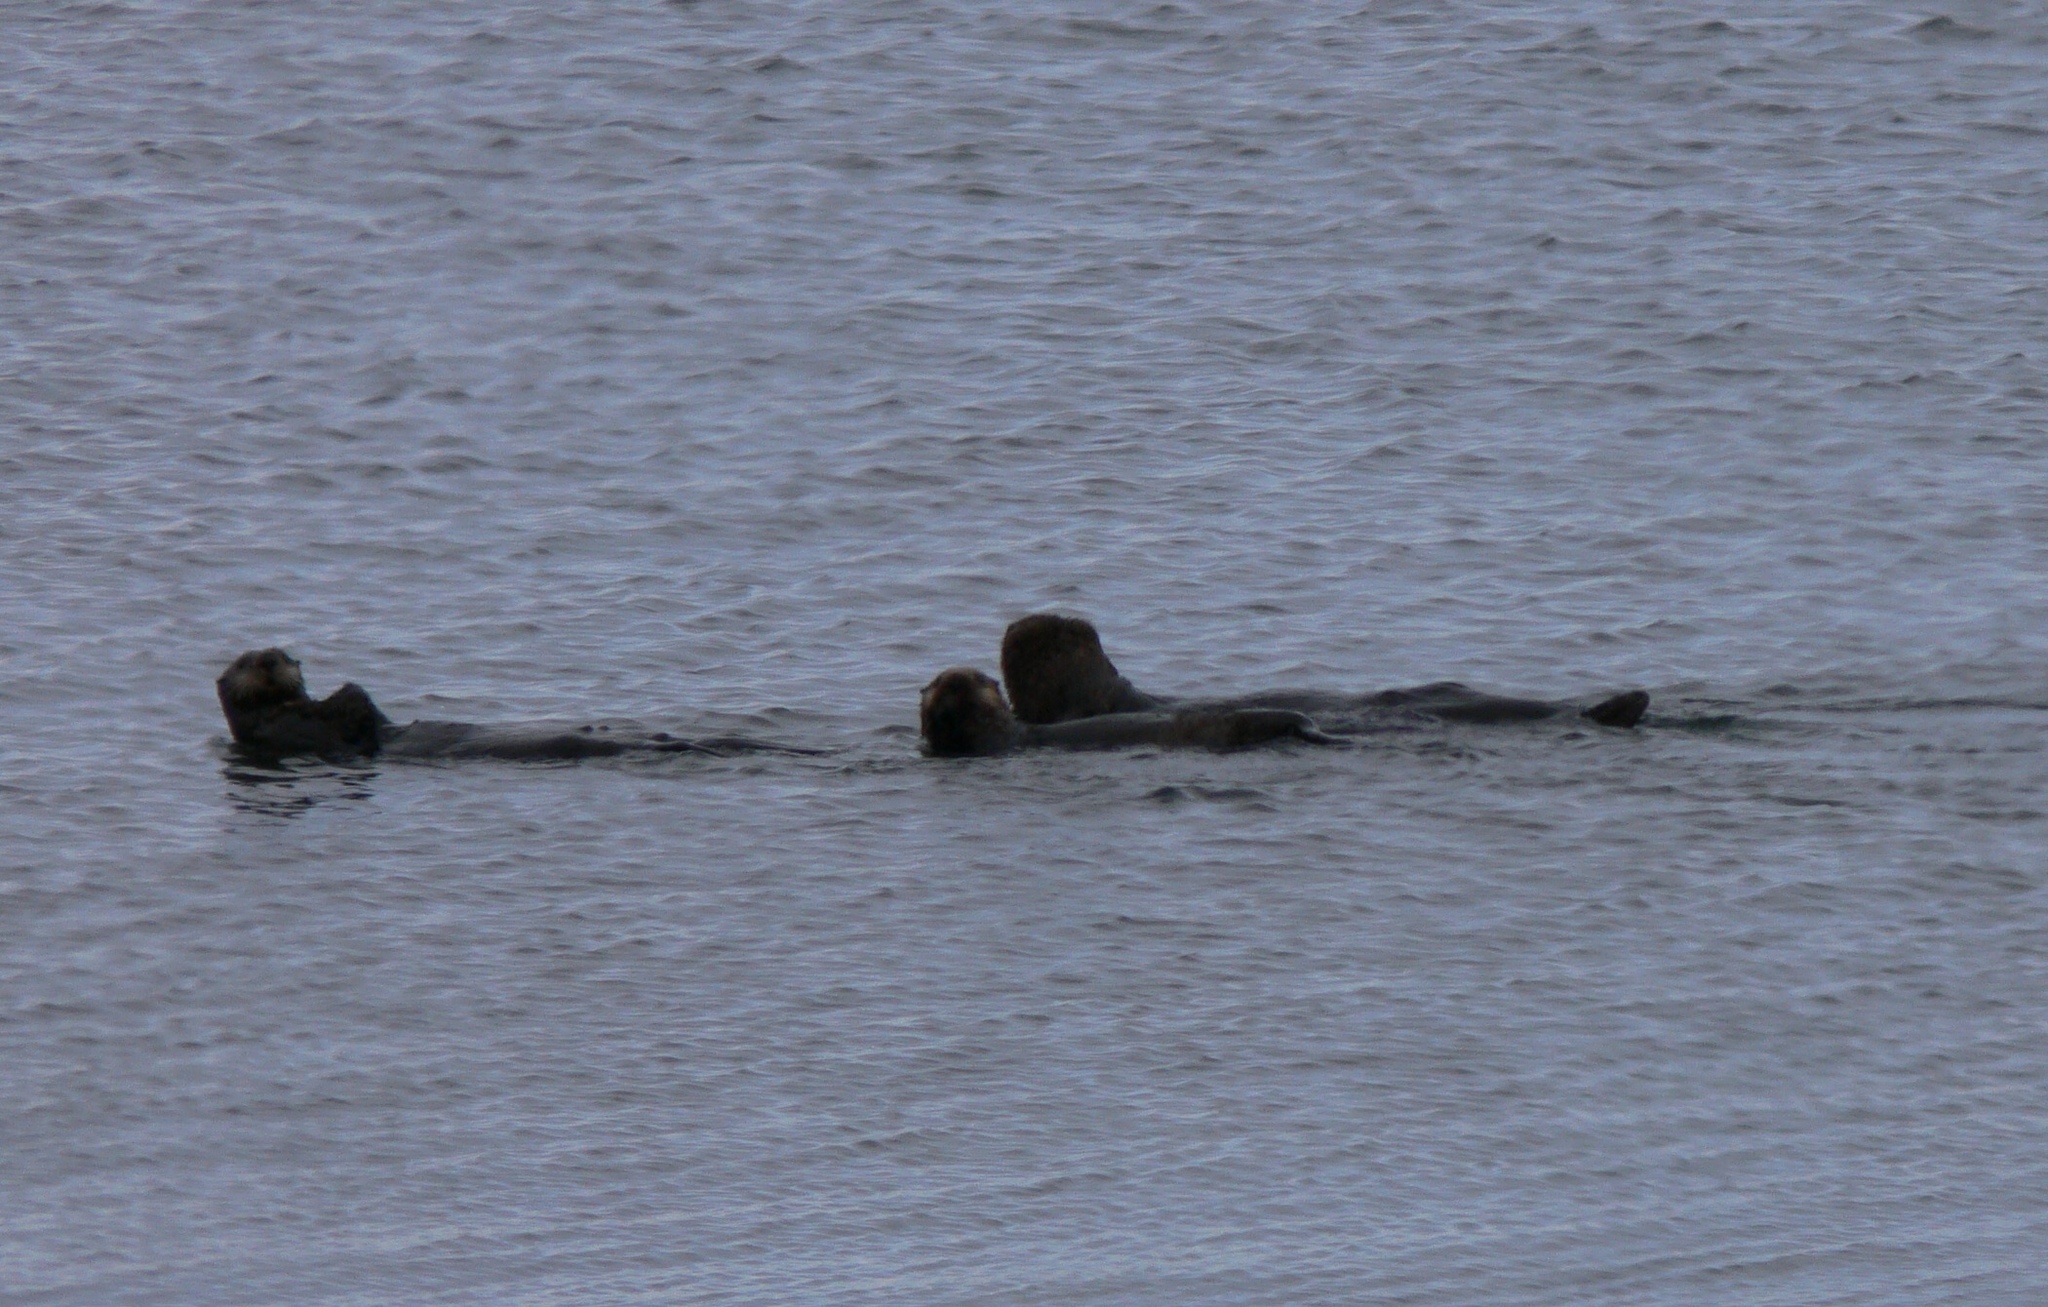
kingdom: Animalia
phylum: Chordata
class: Mammalia
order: Carnivora
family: Mustelidae
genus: Enhydra
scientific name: Enhydra lutris
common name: Sea otter
